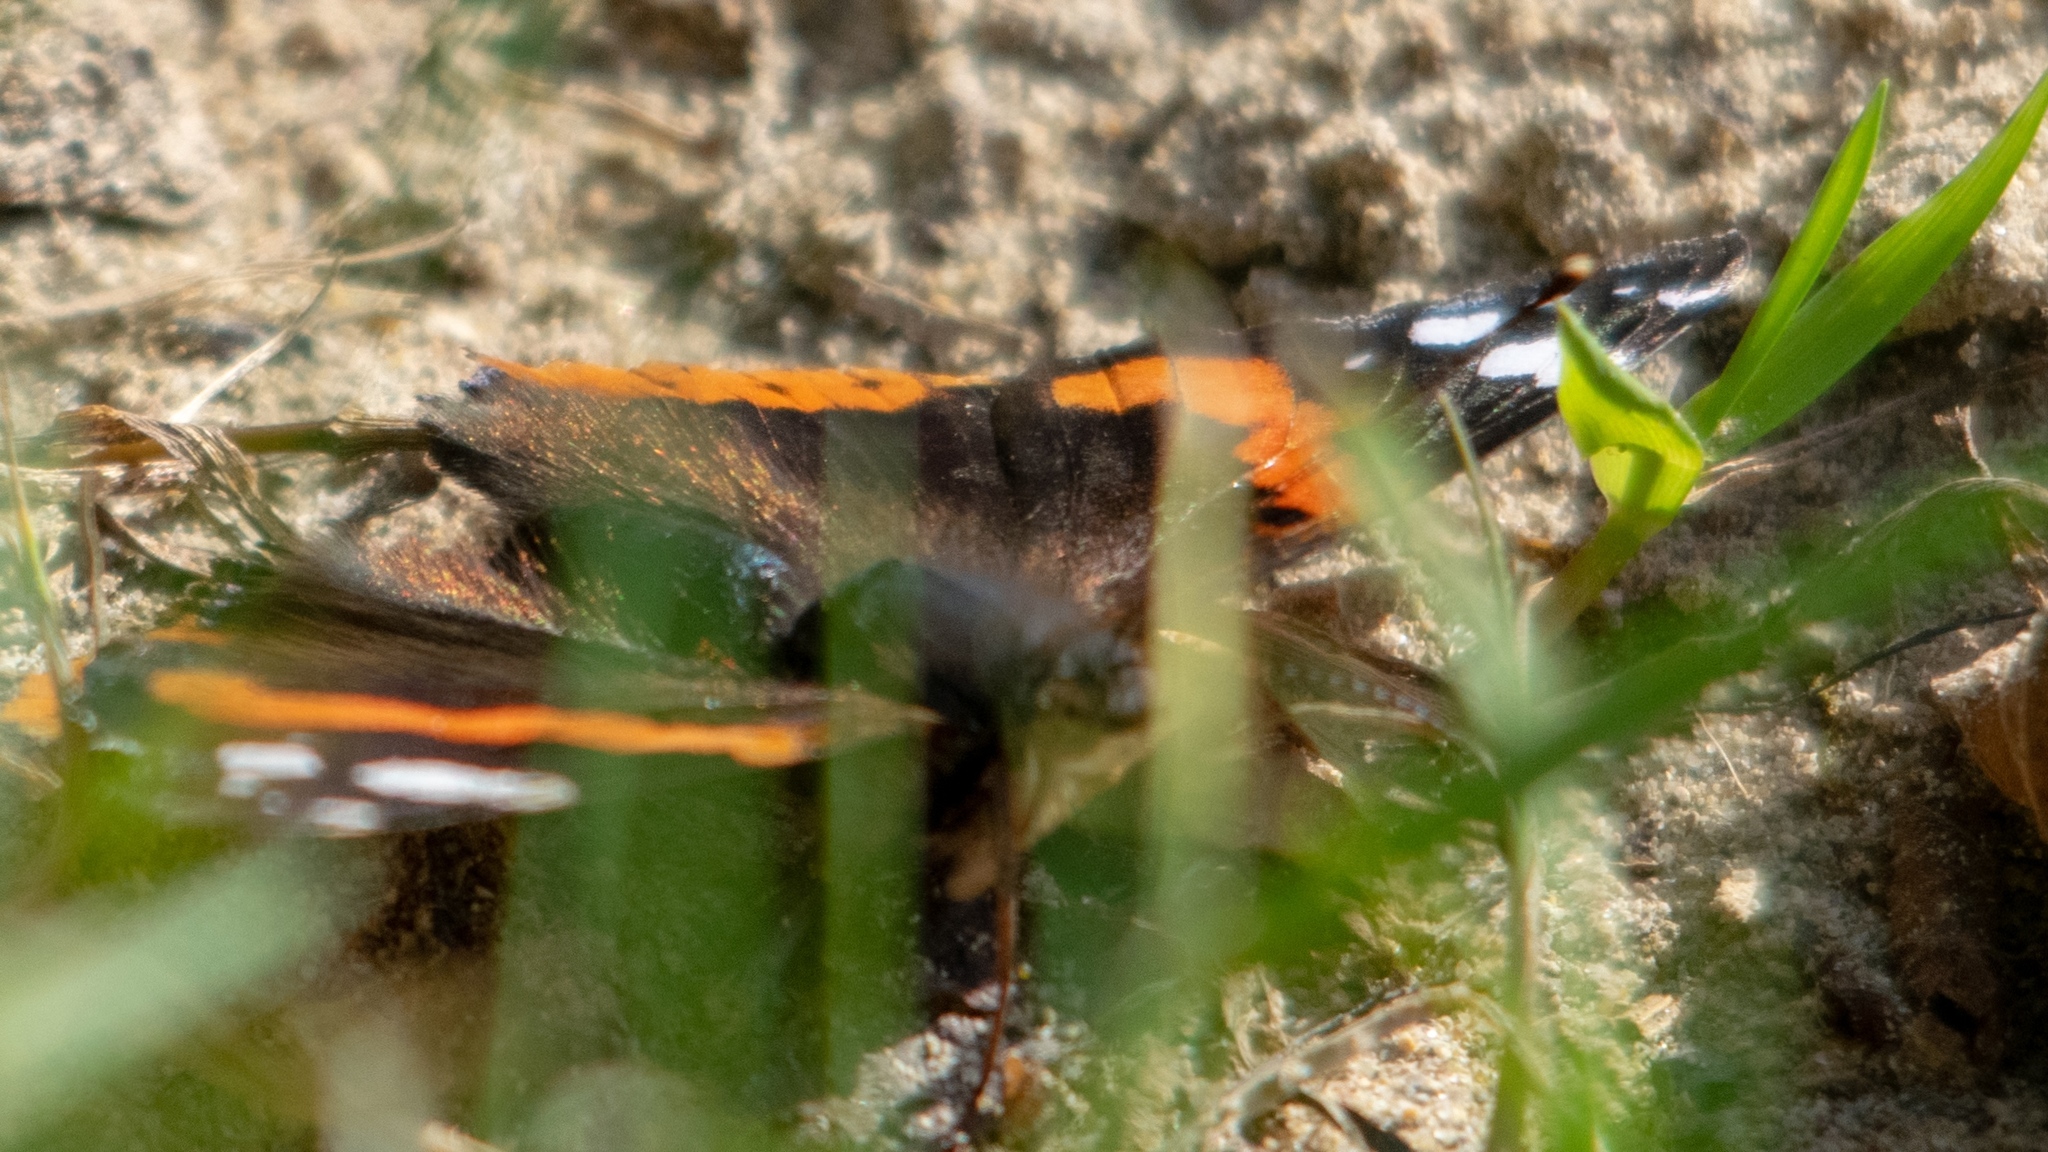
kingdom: Animalia
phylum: Arthropoda
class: Insecta
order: Lepidoptera
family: Nymphalidae
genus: Vanessa
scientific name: Vanessa atalanta
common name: Red admiral
